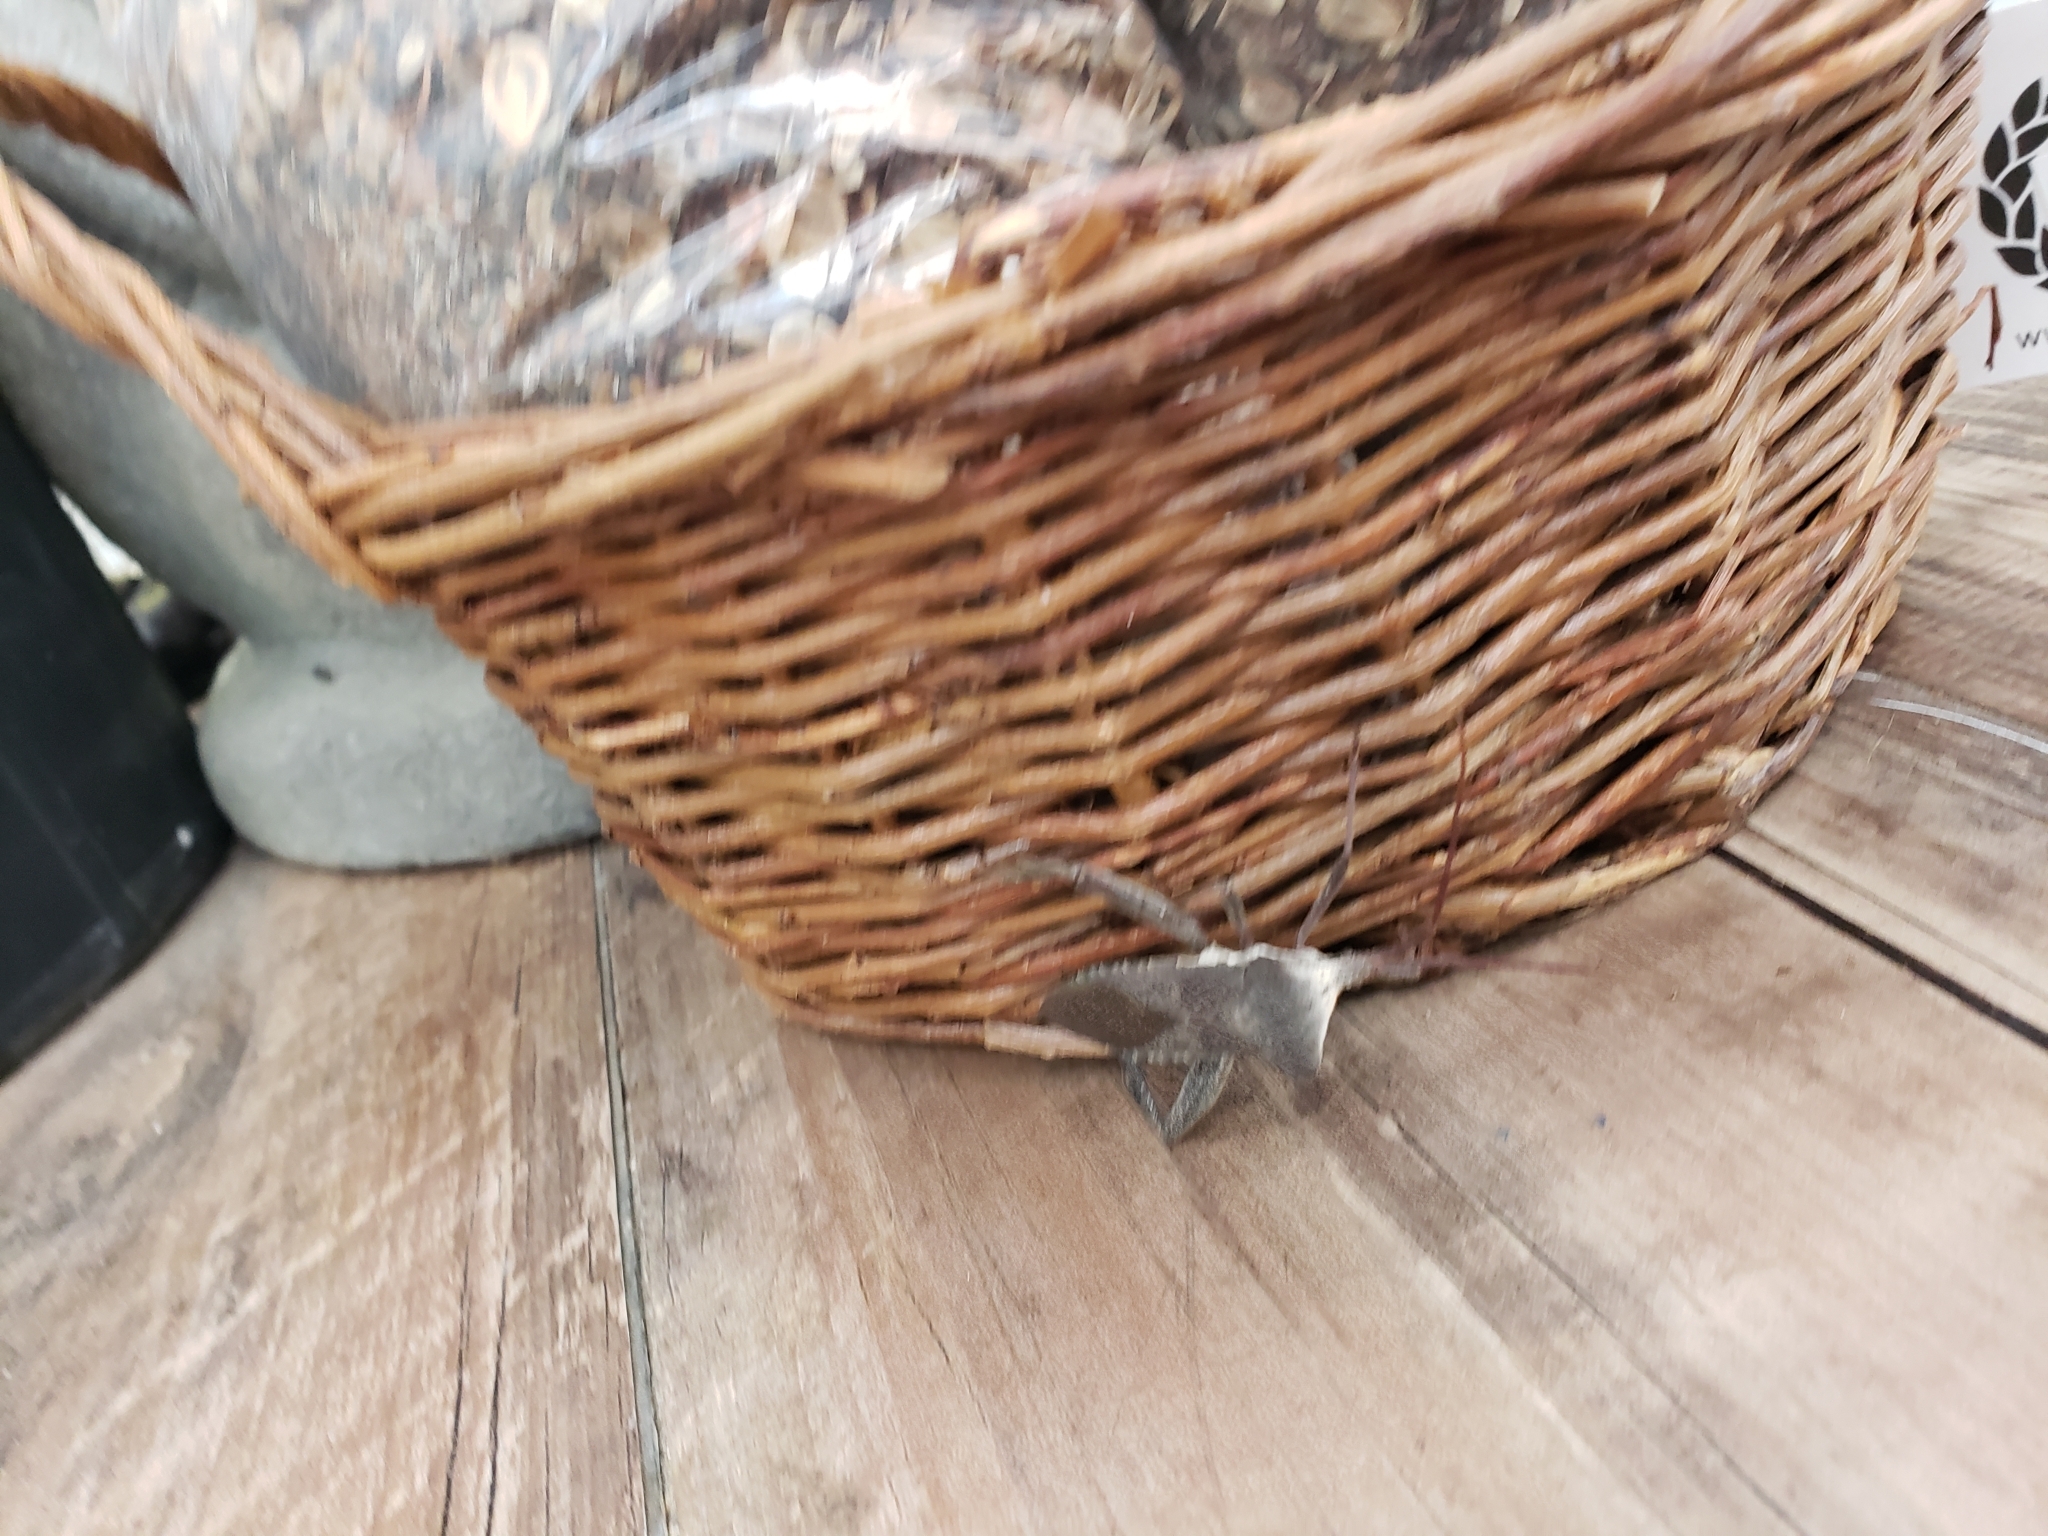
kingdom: Animalia
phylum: Arthropoda
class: Insecta
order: Hemiptera
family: Coreidae
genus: Acanthocephala
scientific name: Acanthocephala declivis
